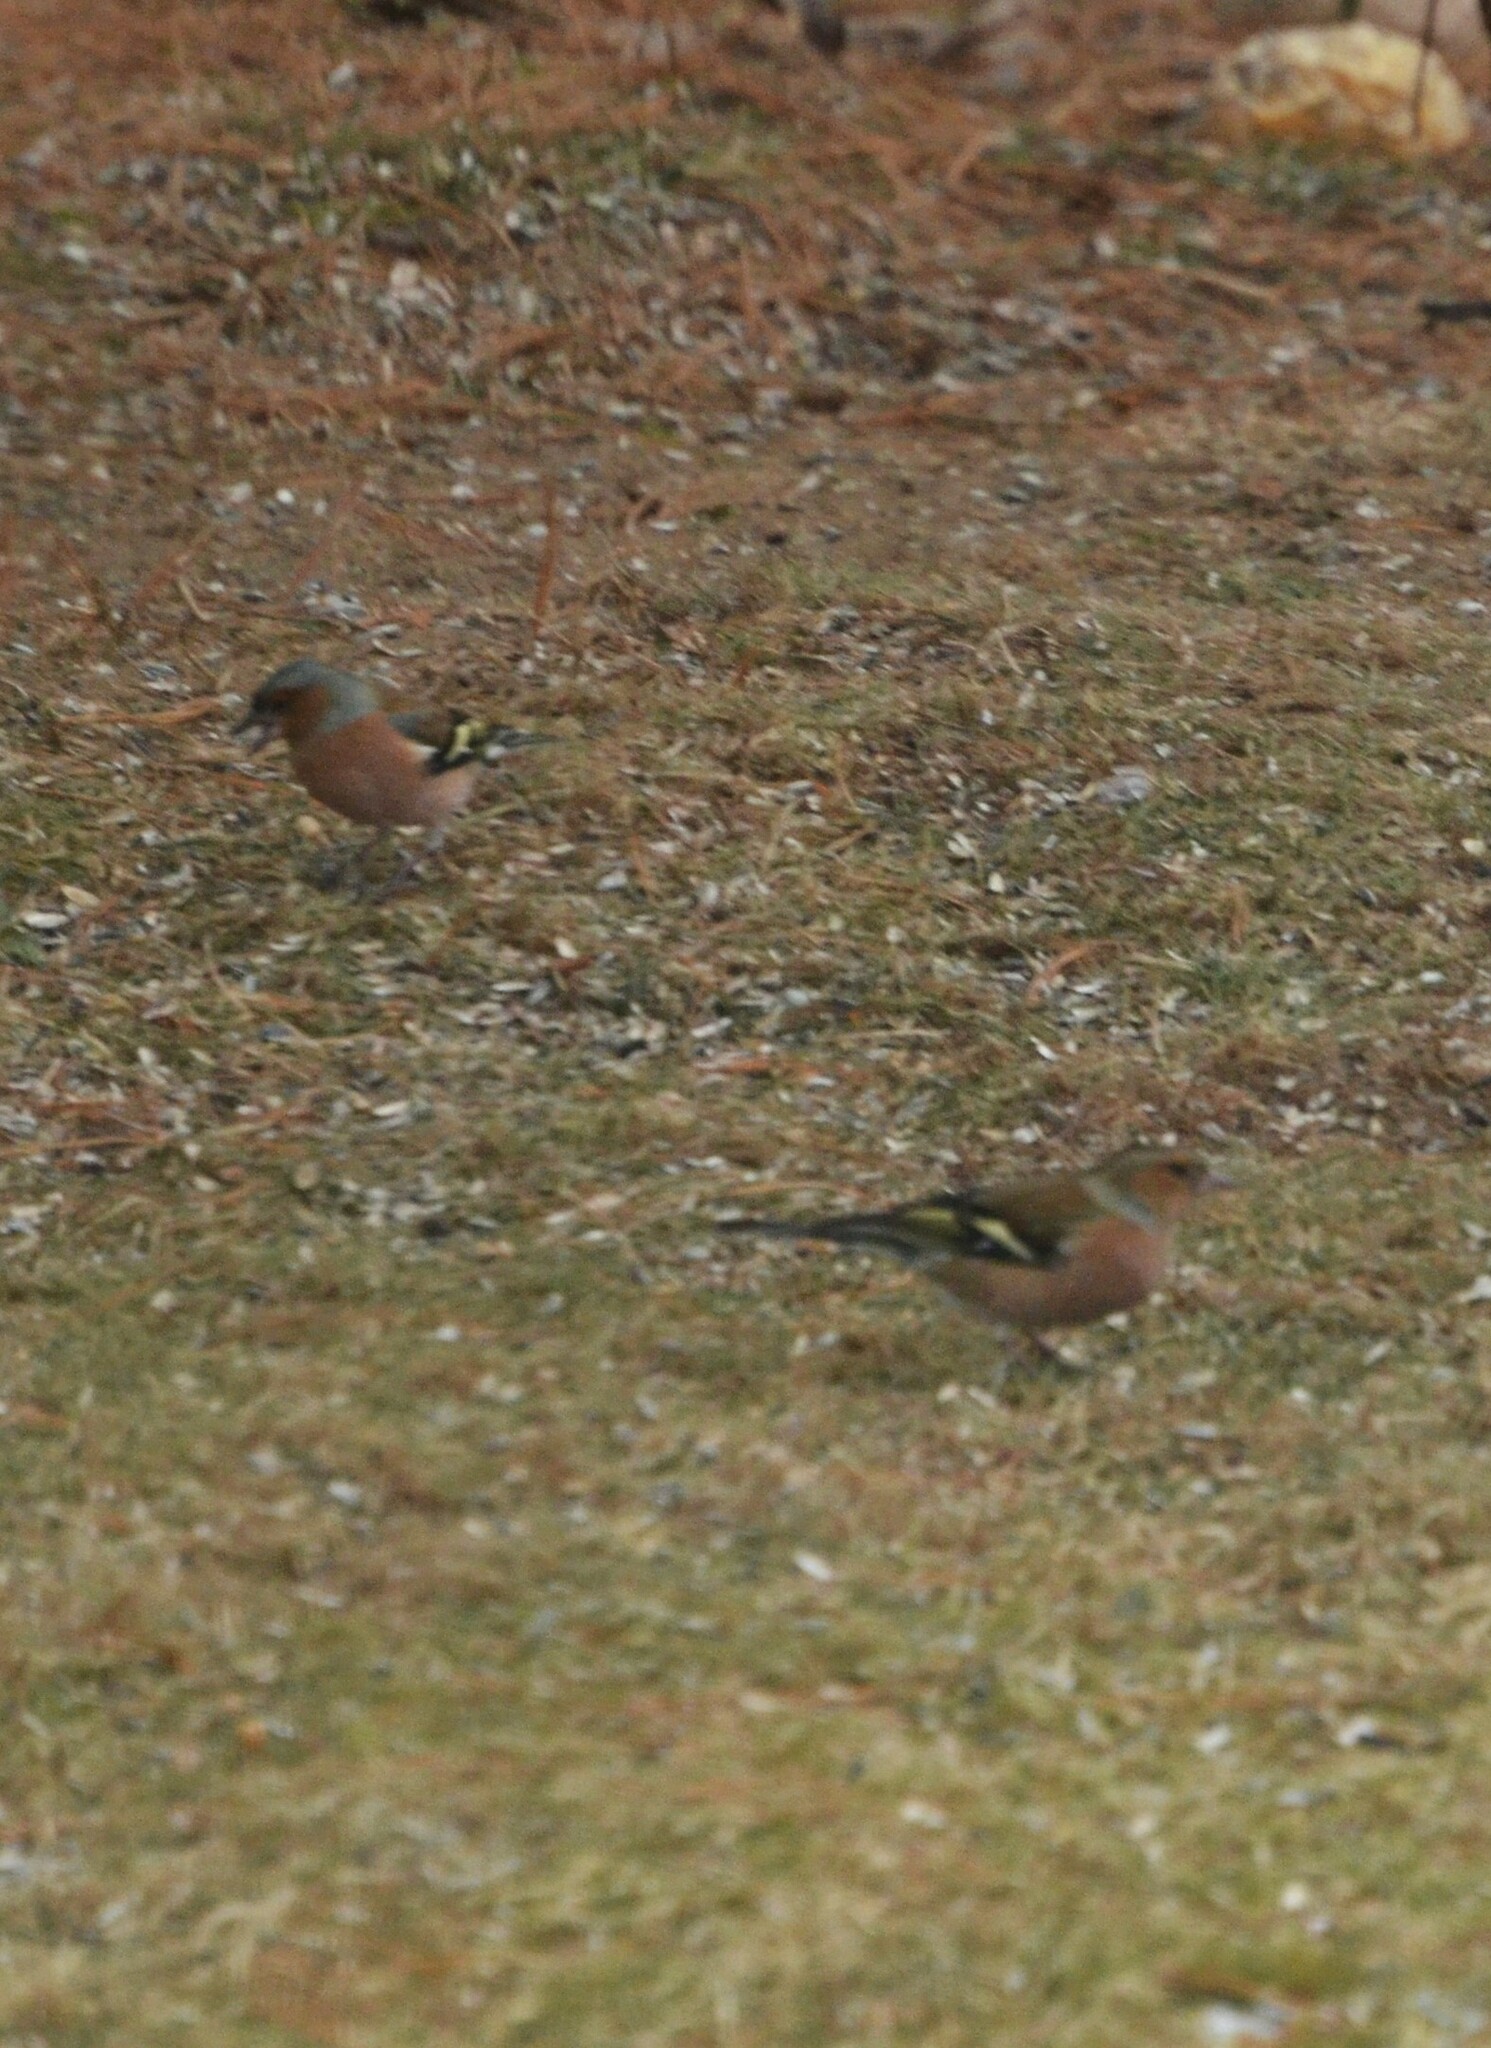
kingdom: Animalia
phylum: Chordata
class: Aves
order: Passeriformes
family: Fringillidae
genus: Fringilla
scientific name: Fringilla coelebs
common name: Common chaffinch
